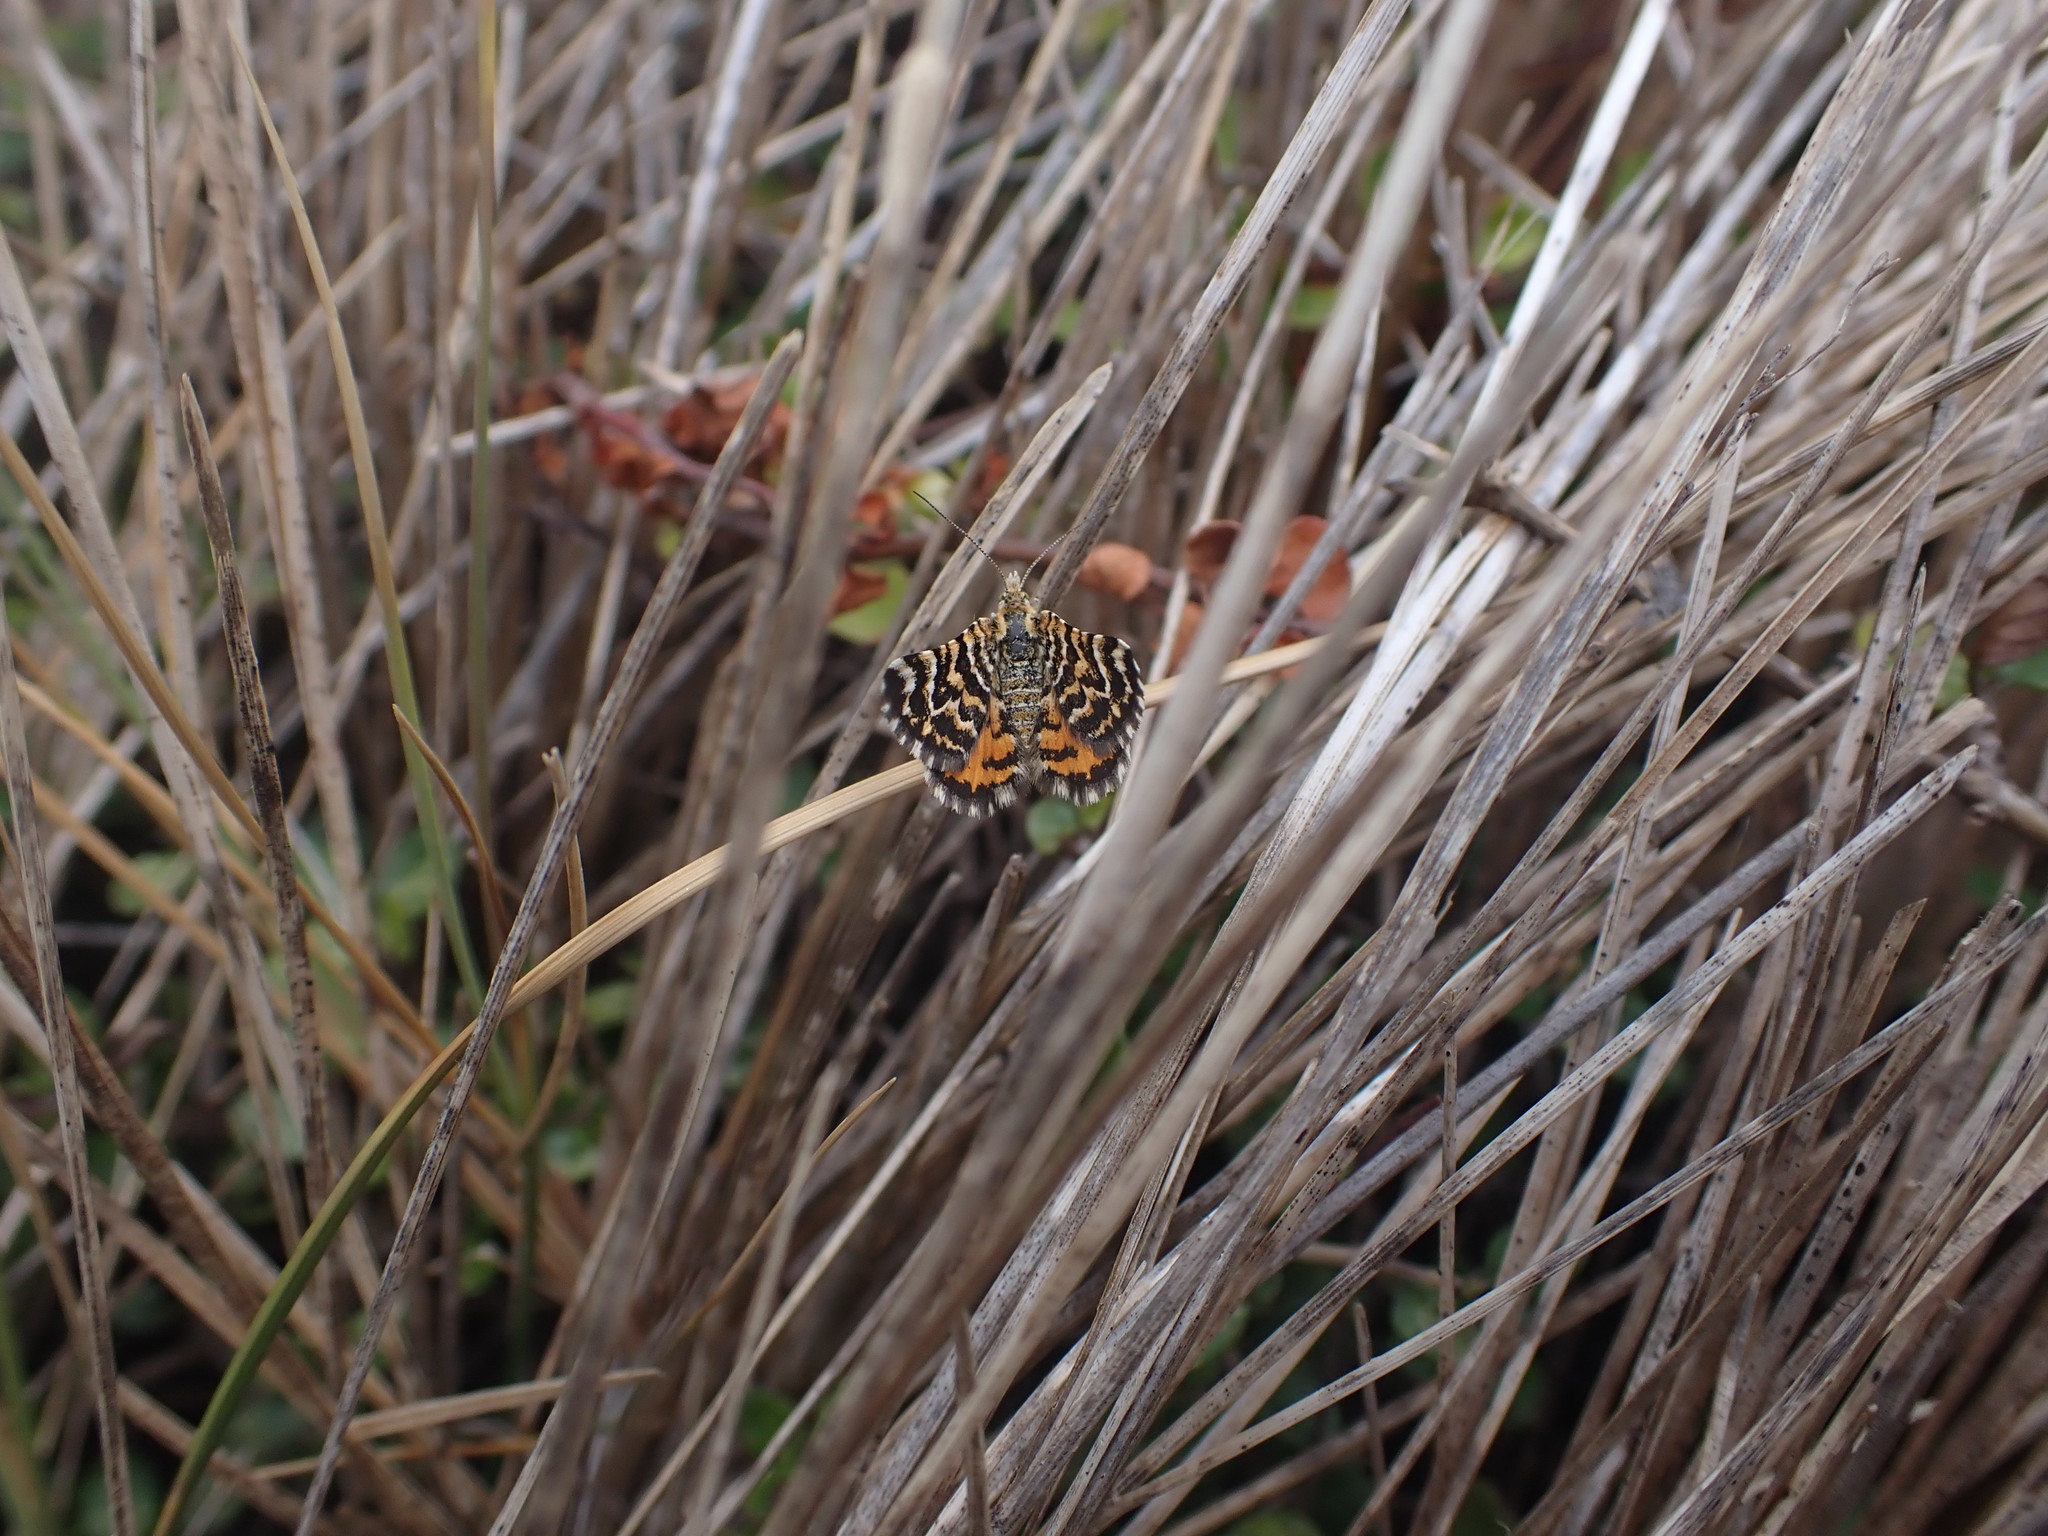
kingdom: Animalia
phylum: Arthropoda
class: Insecta
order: Lepidoptera
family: Geometridae
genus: Notoreas
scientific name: Notoreas perornata
